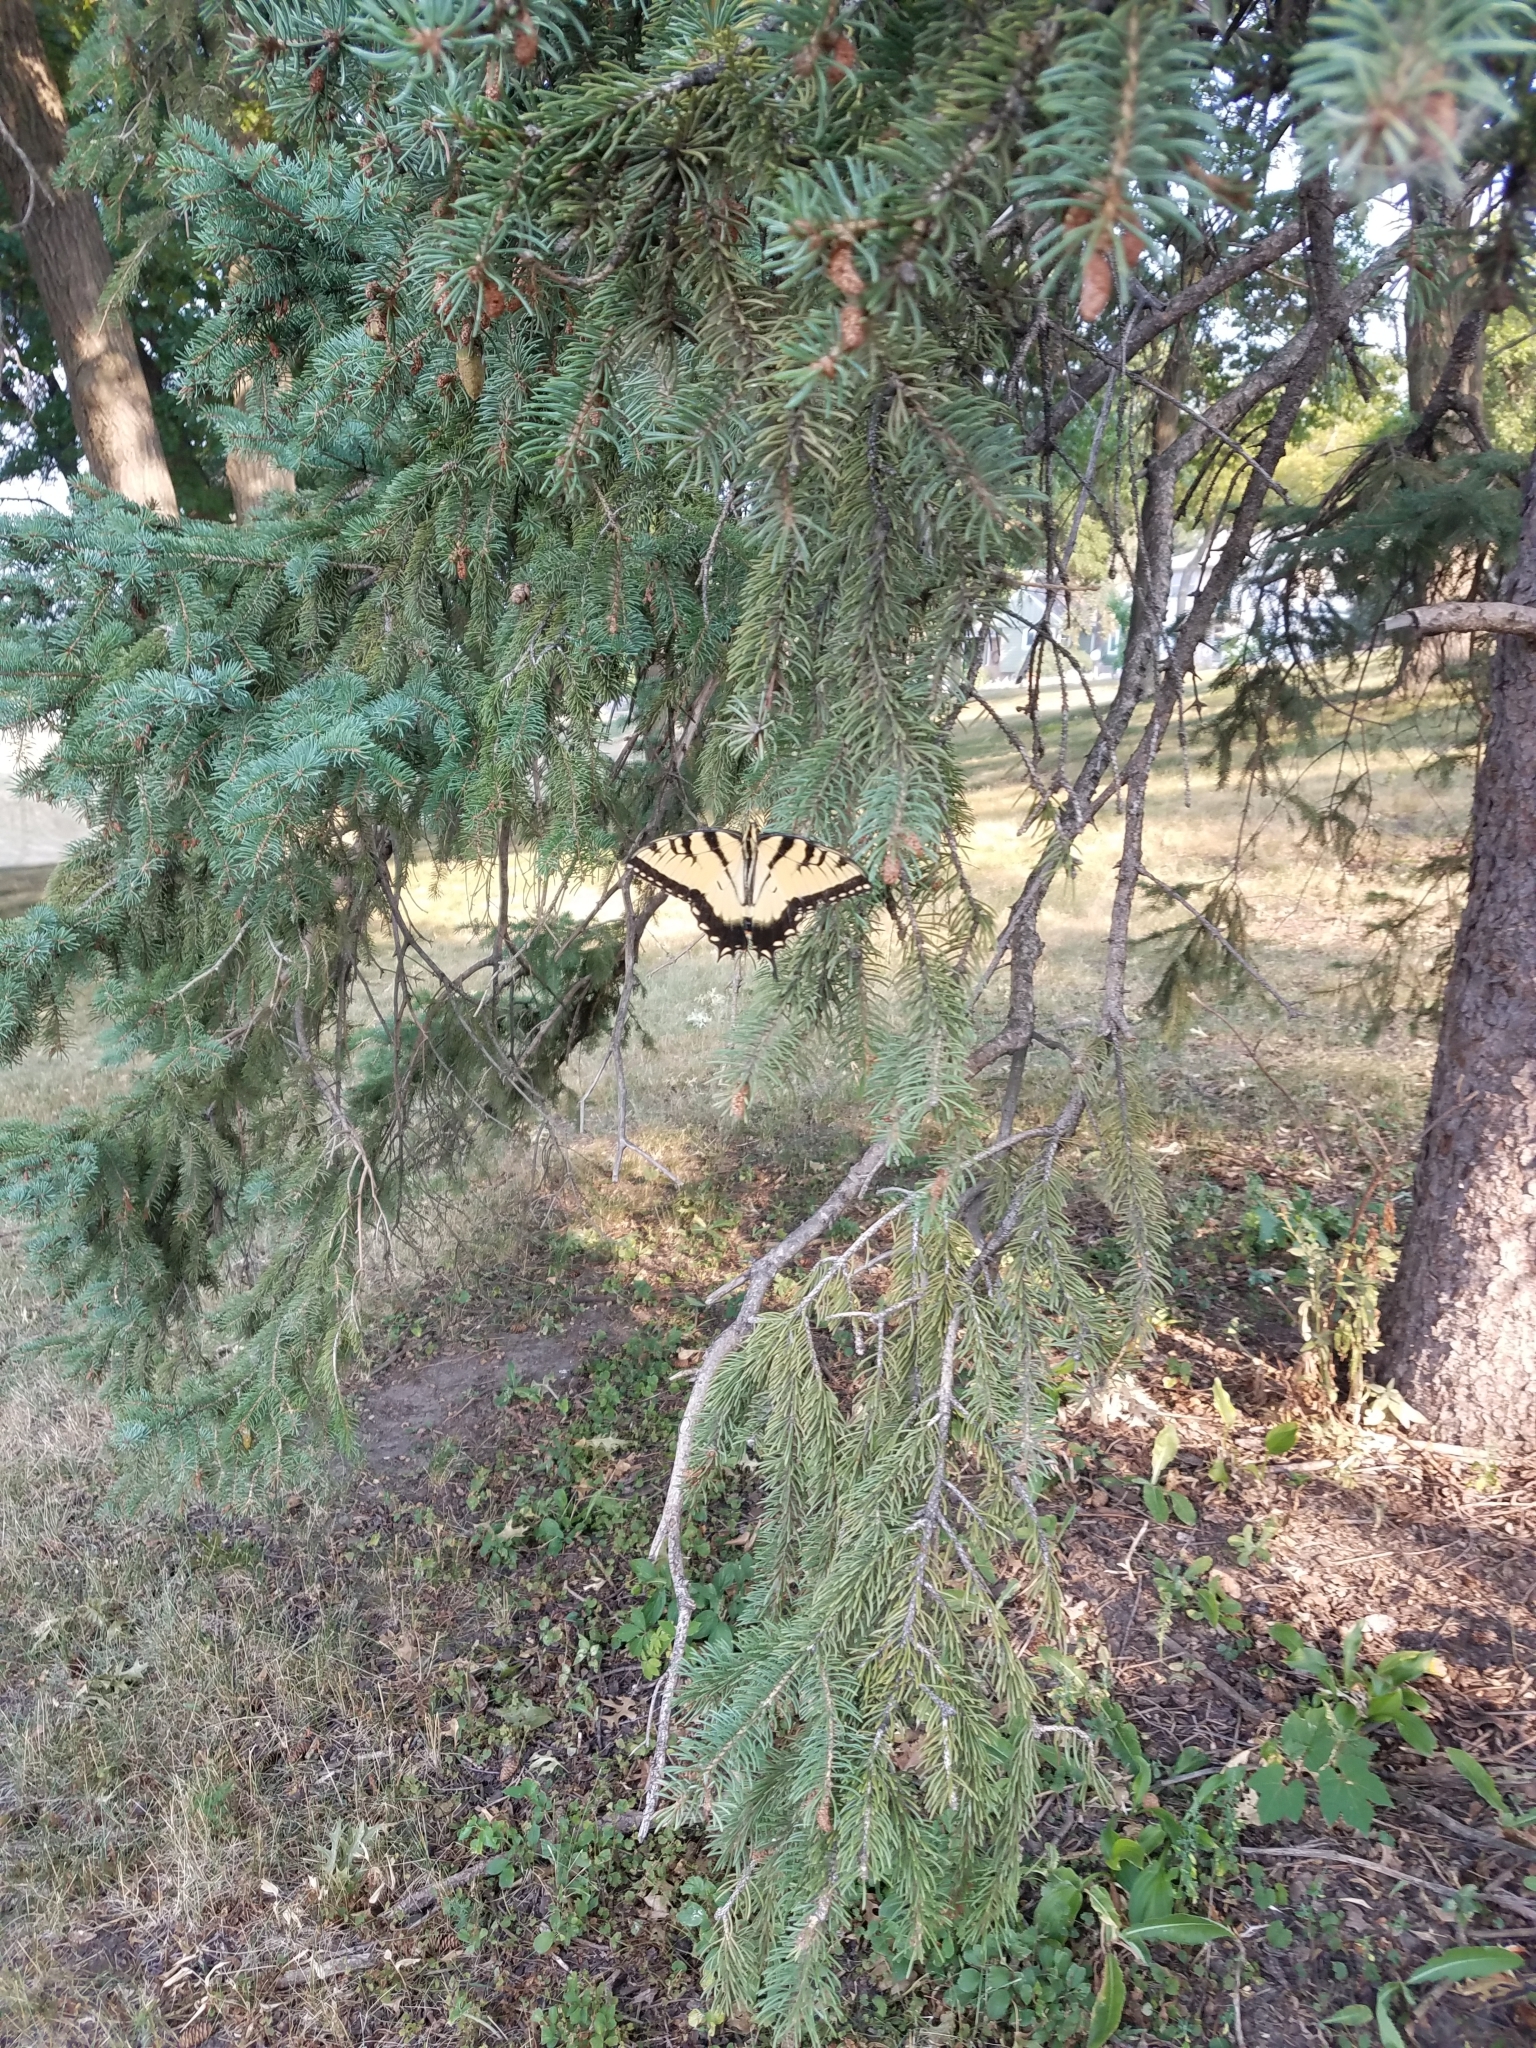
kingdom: Animalia
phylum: Arthropoda
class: Insecta
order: Lepidoptera
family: Papilionidae
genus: Papilio
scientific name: Papilio glaucus
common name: Tiger swallowtail
